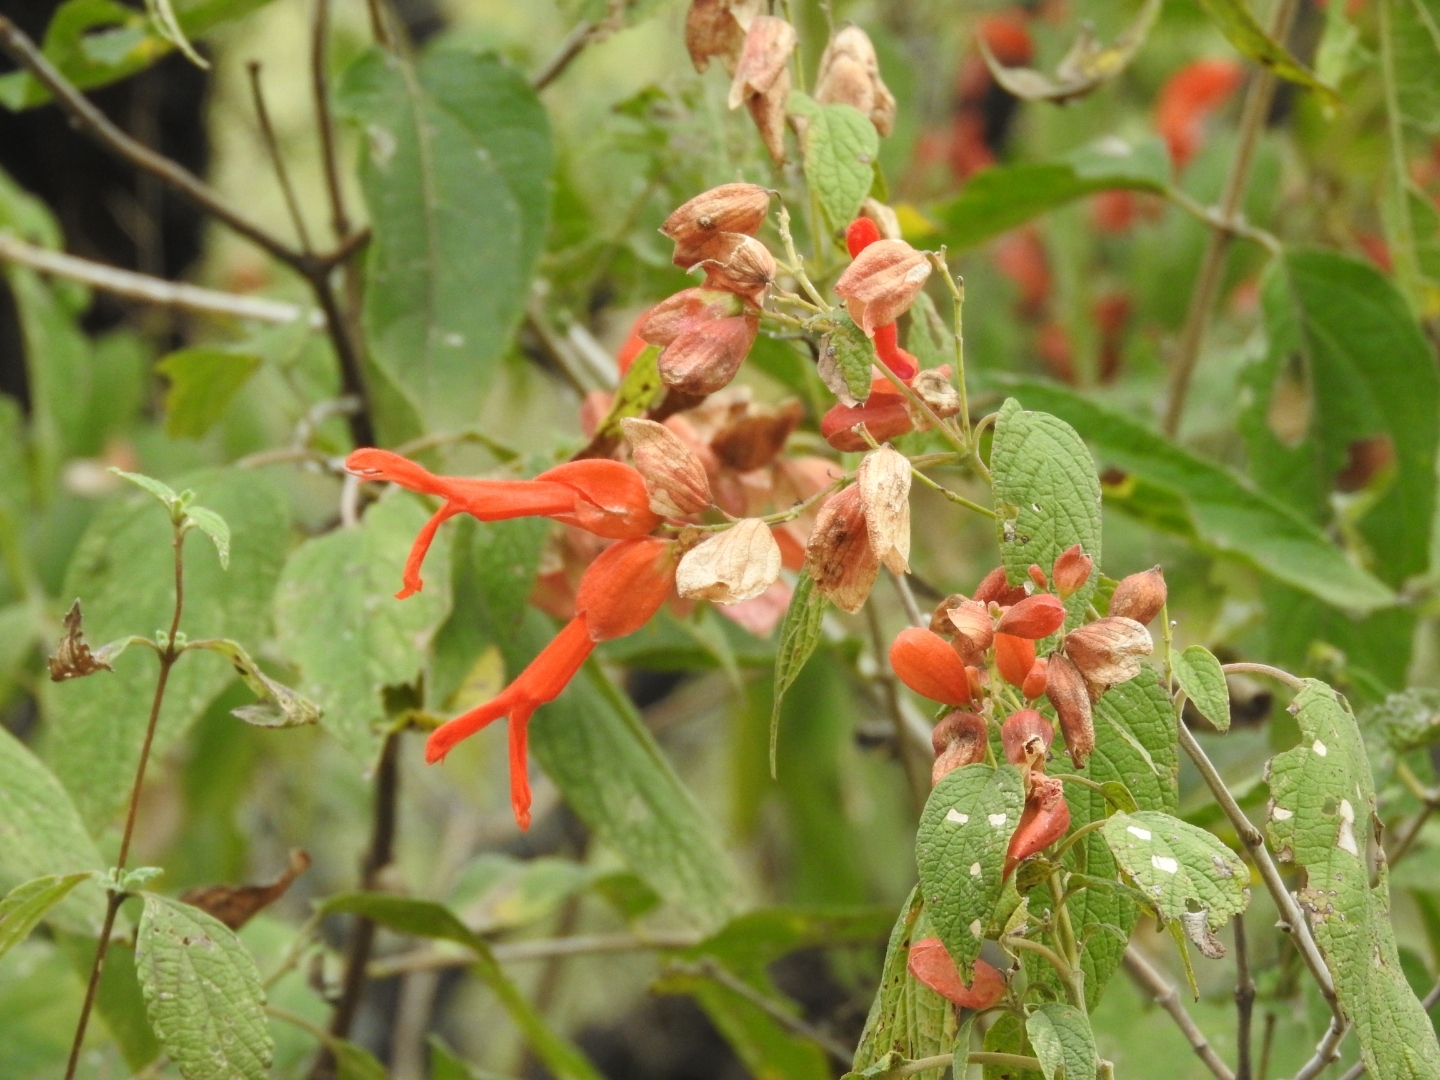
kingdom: Plantae
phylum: Tracheophyta
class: Magnoliopsida
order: Lamiales
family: Lamiaceae
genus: Salvia
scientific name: Salvia sessei
